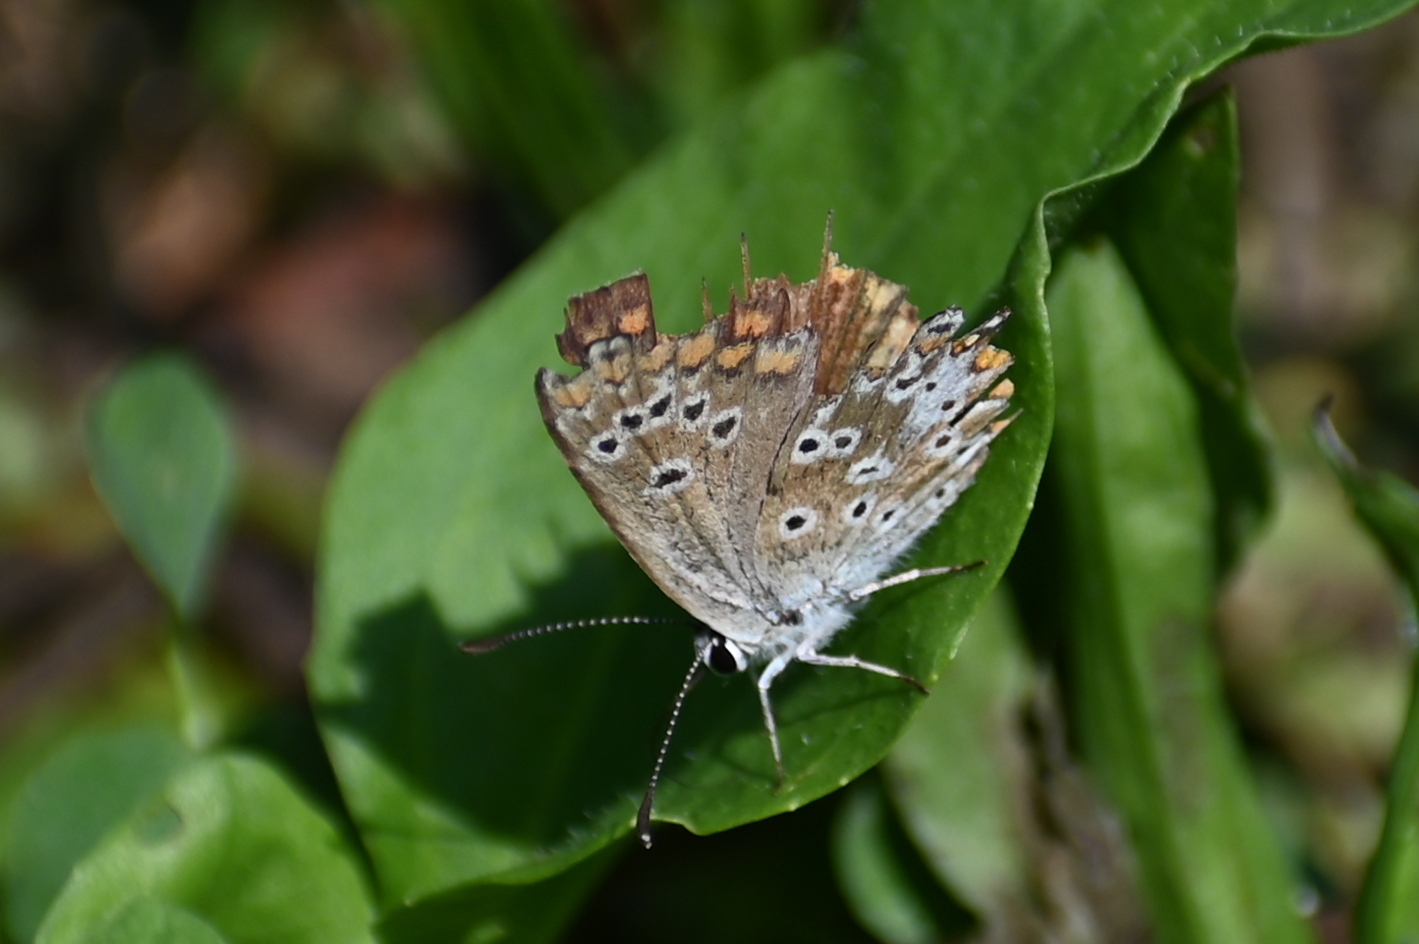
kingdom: Animalia
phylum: Arthropoda
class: Insecta
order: Lepidoptera
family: Lycaenidae
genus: Aricia
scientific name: Aricia agestis
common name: Brown argus
